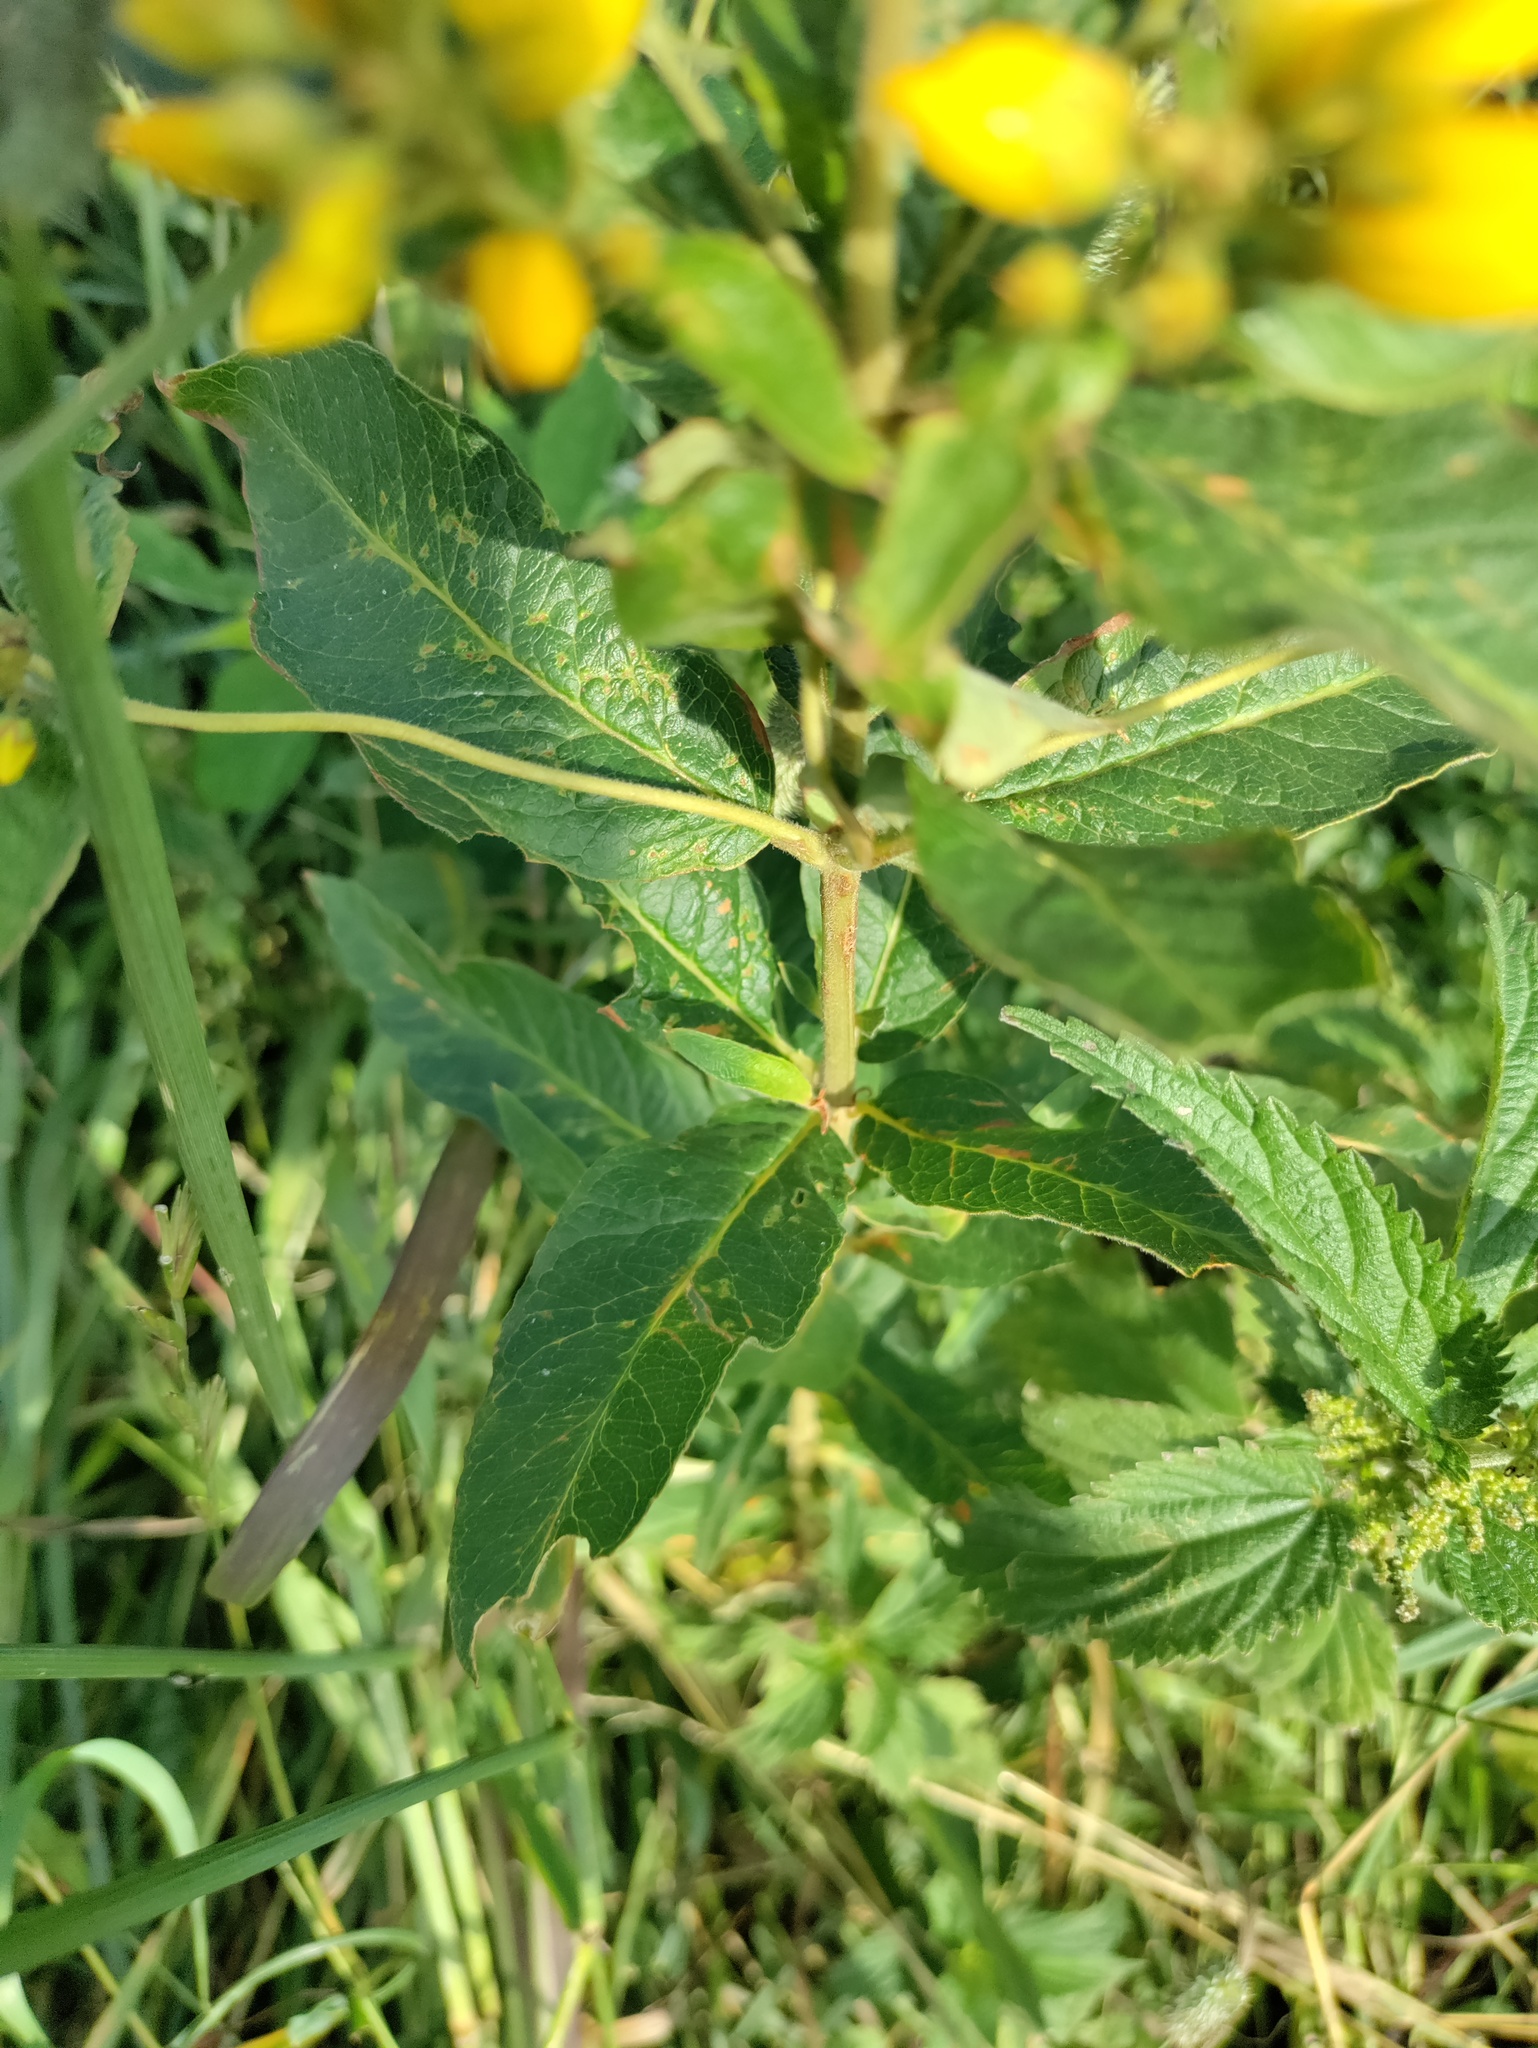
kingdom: Plantae
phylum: Tracheophyta
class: Magnoliopsida
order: Ericales
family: Primulaceae
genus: Lysimachia
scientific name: Lysimachia vulgaris
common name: Yellow loosestrife
